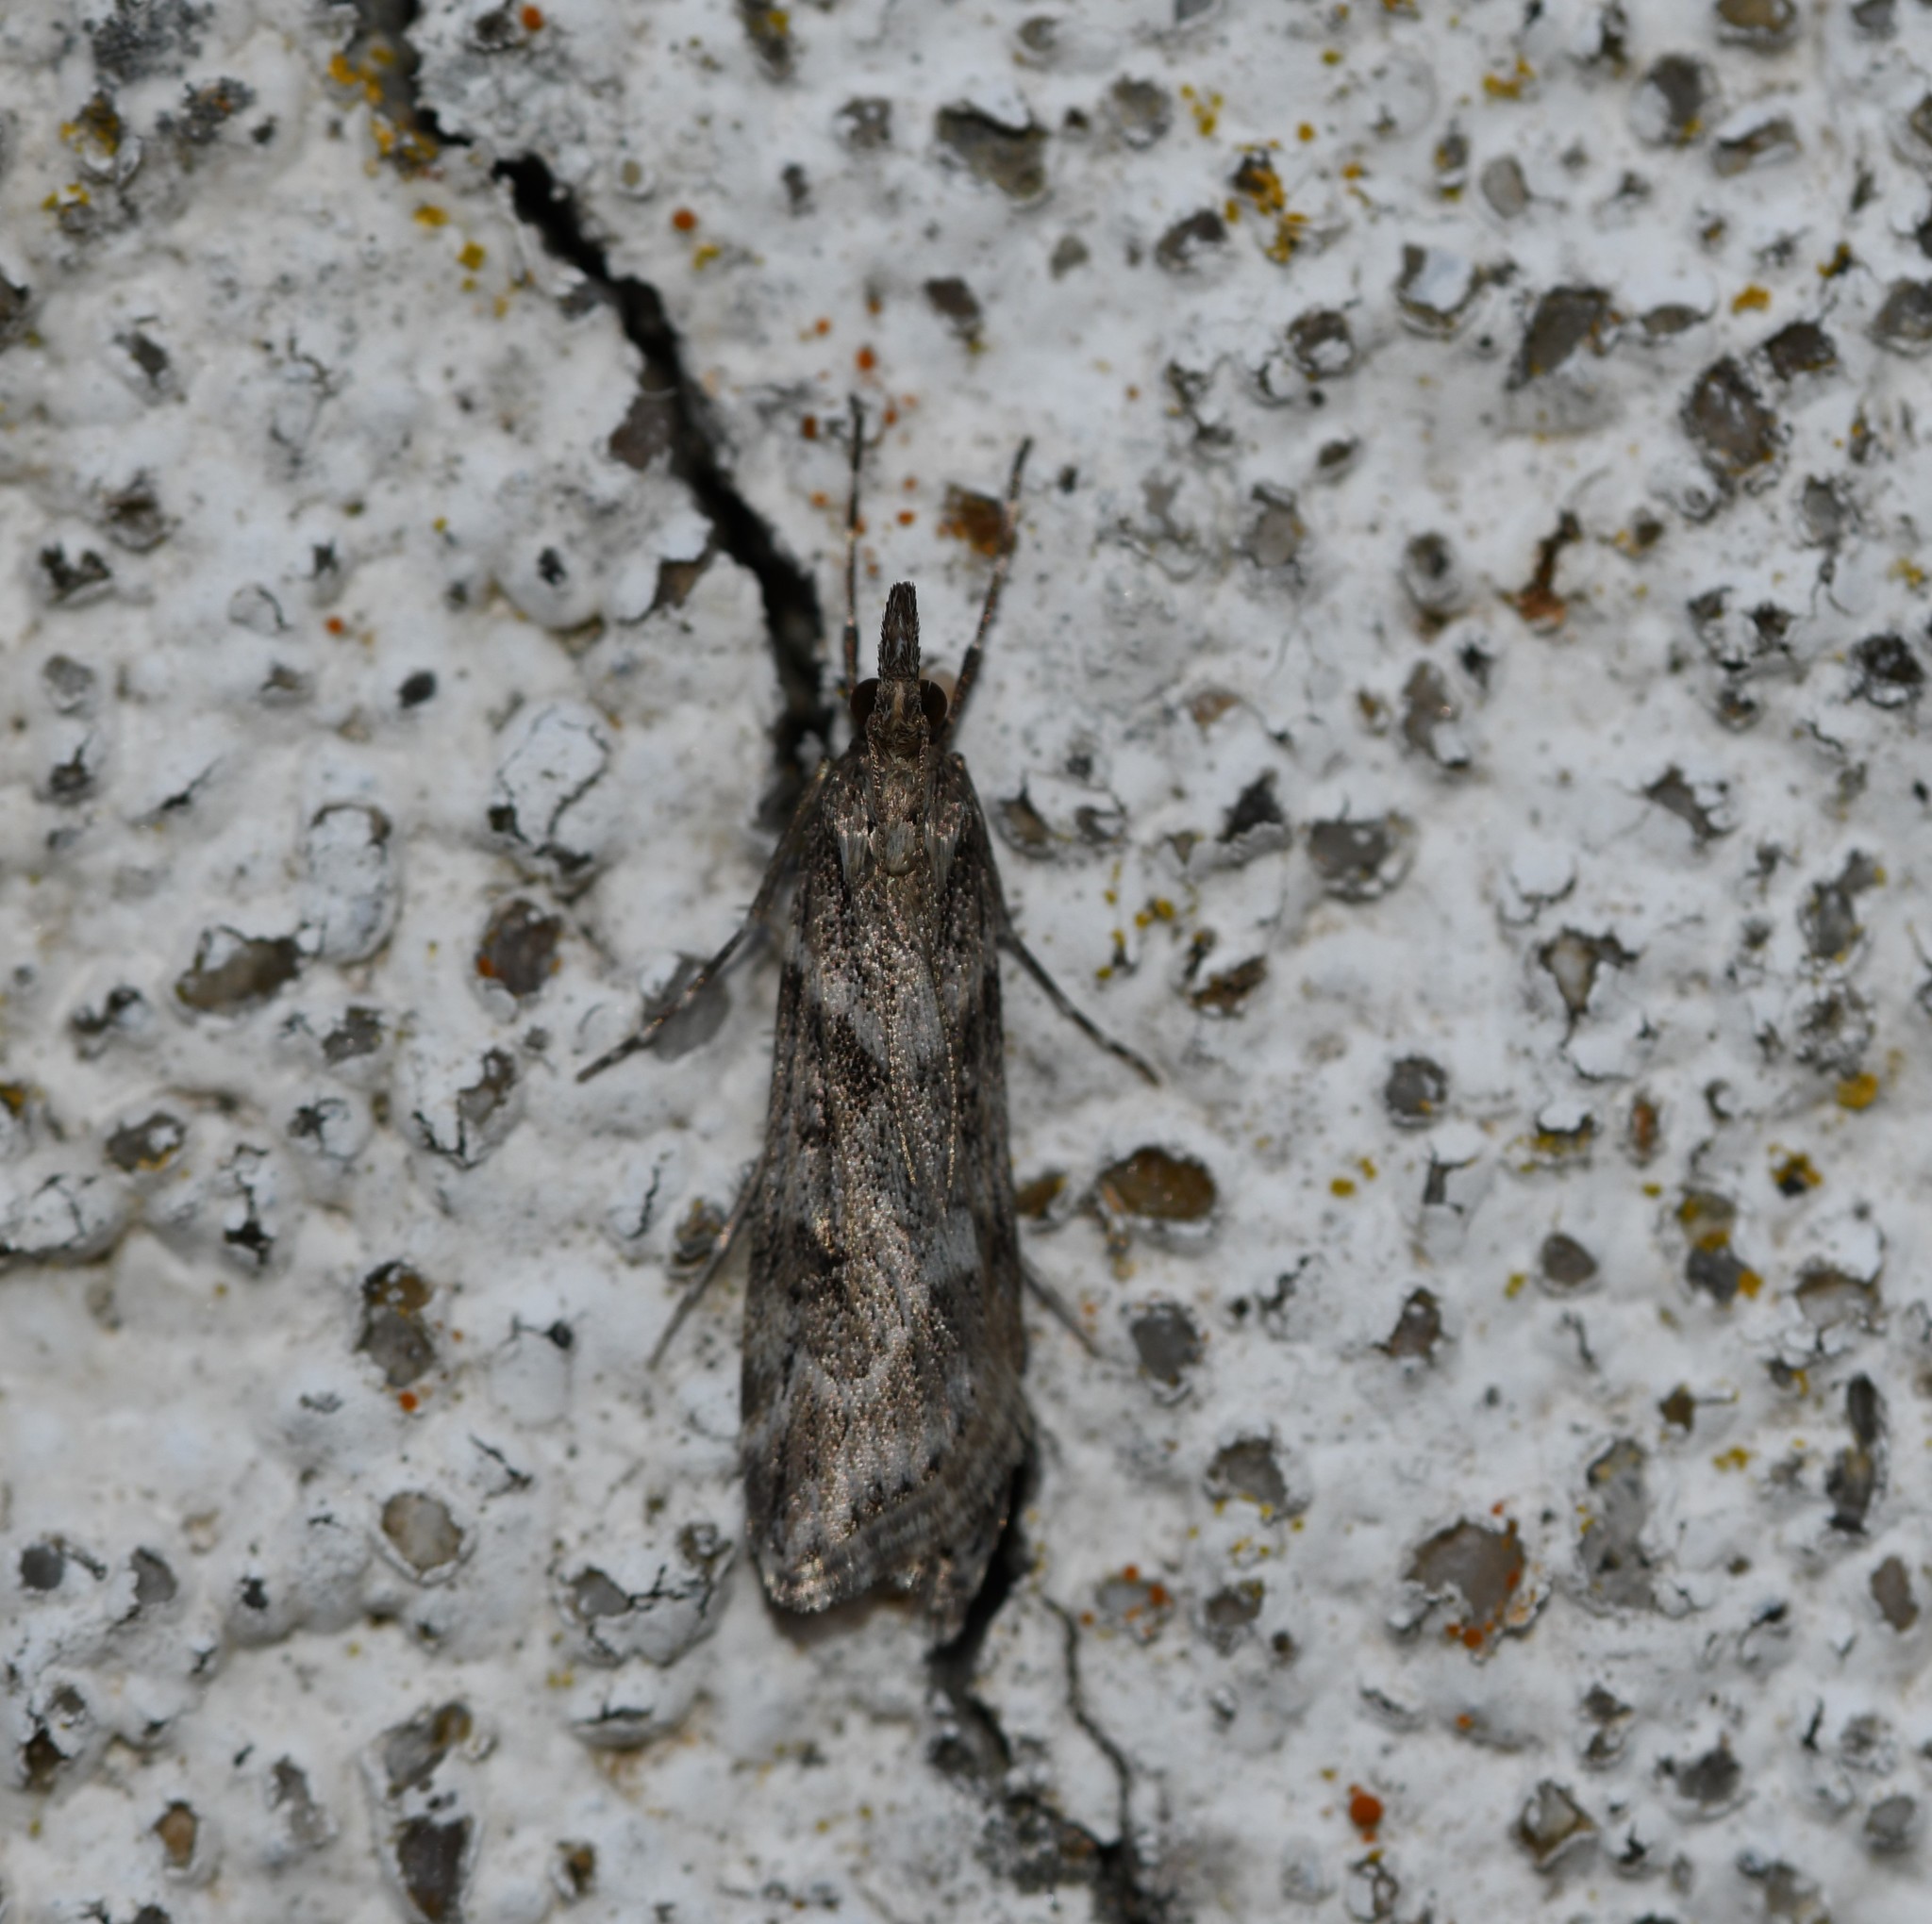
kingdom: Animalia
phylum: Arthropoda
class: Insecta
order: Lepidoptera
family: Crambidae
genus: Eudonia
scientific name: Eudonia angustea
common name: Narrow-winged grey
